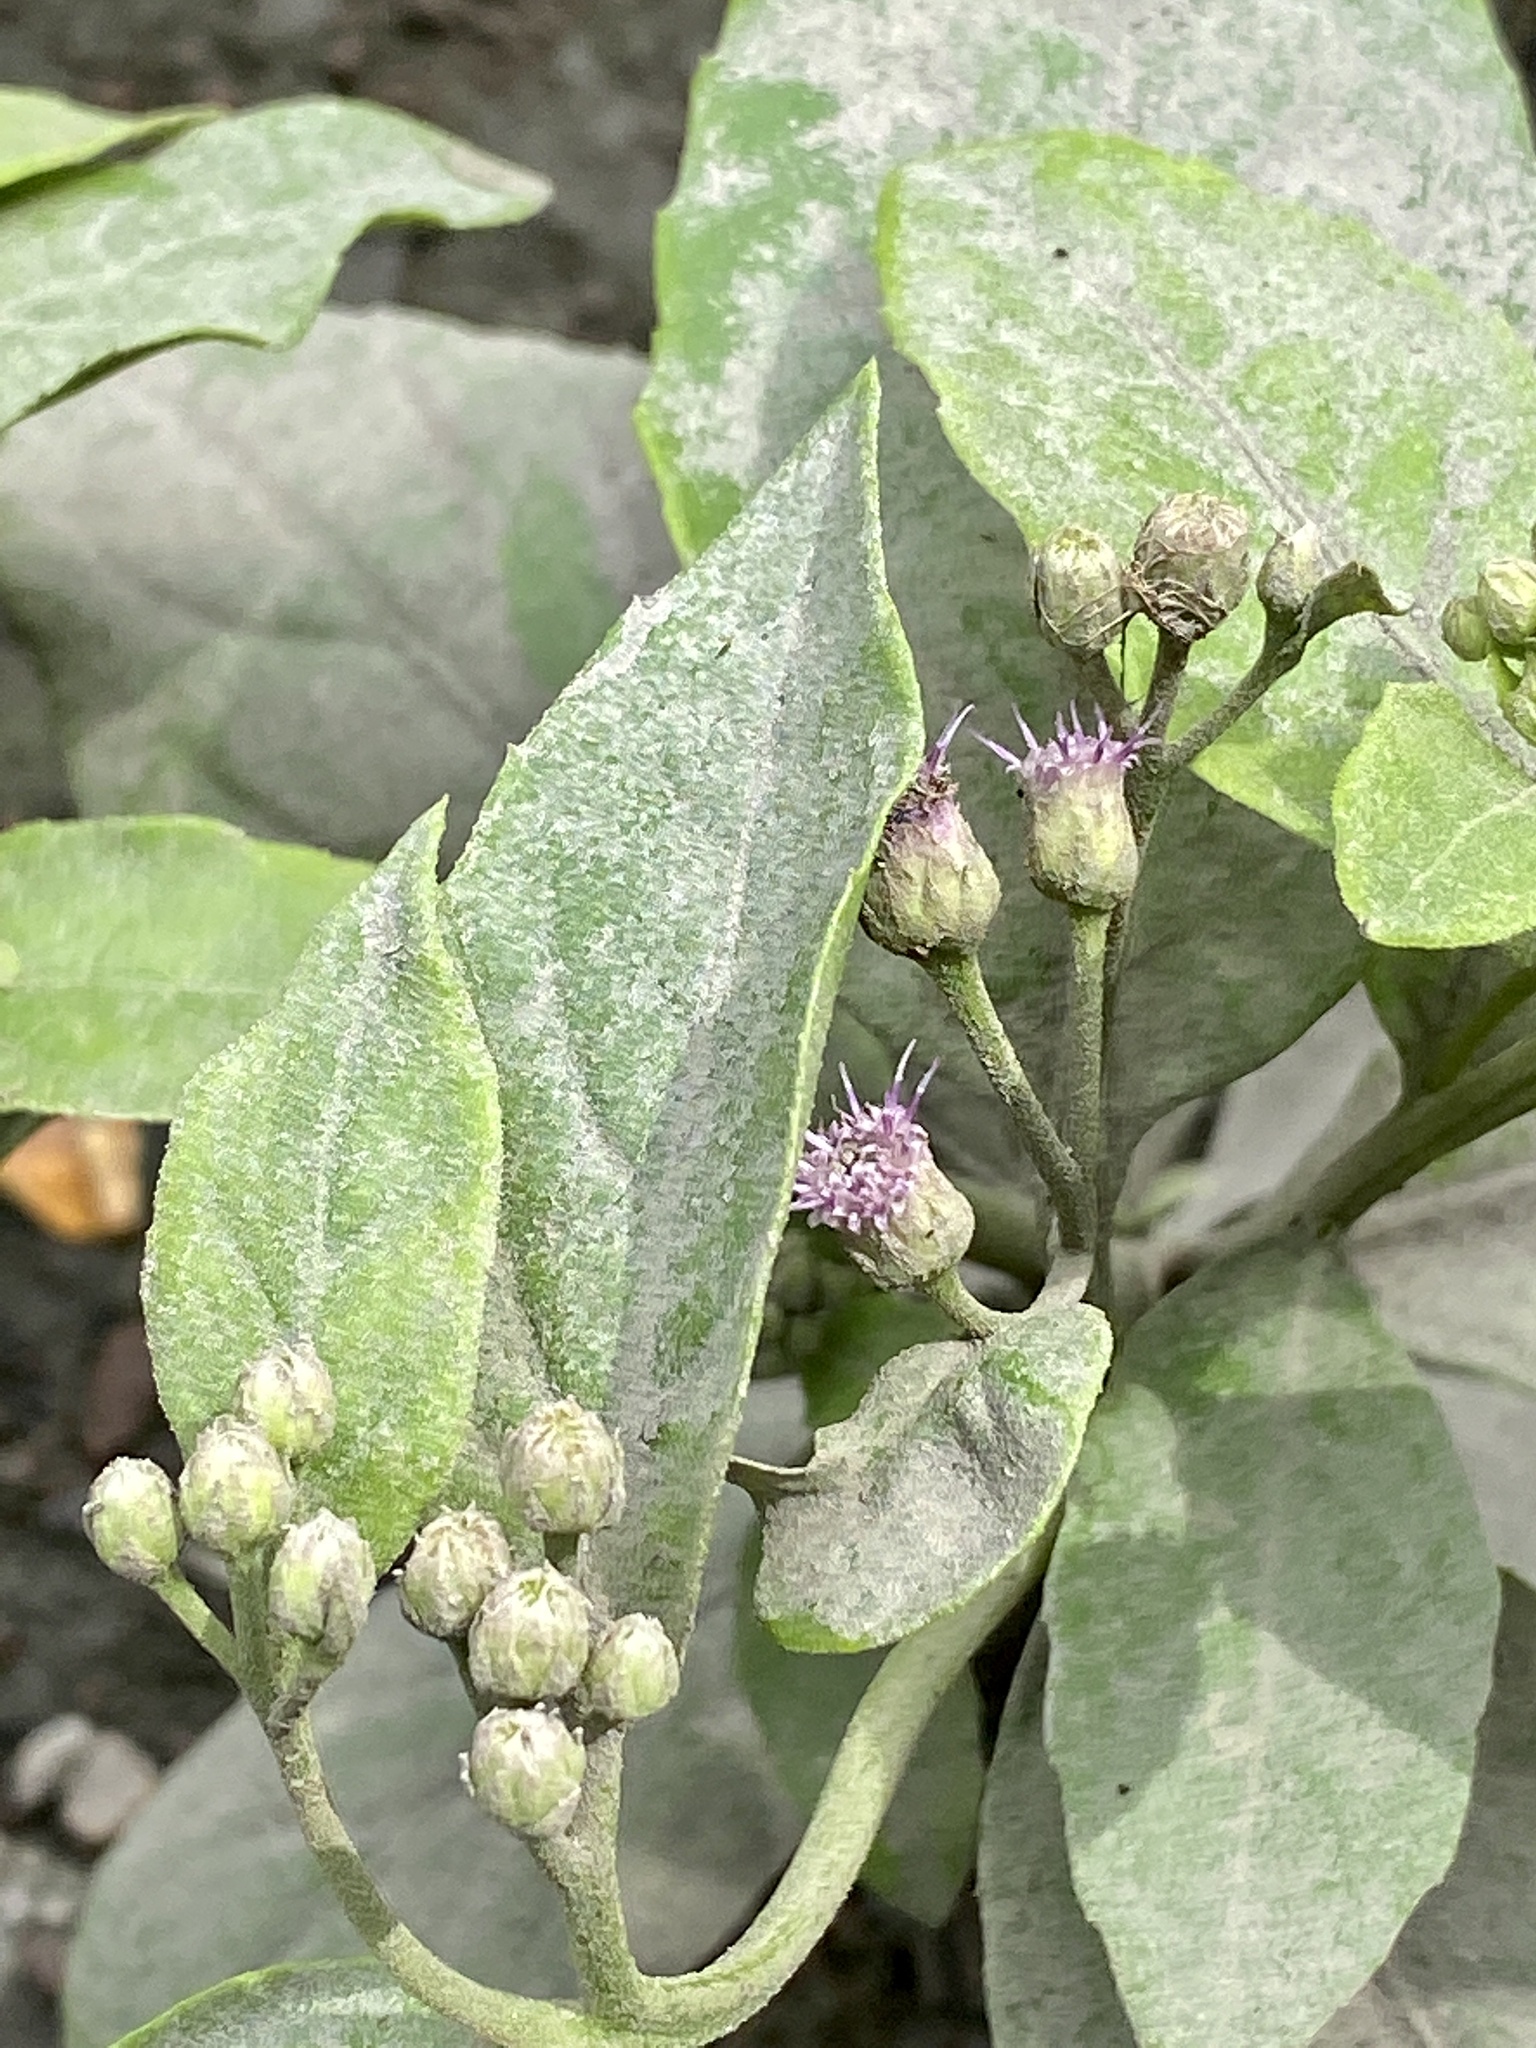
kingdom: Plantae
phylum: Tracheophyta
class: Magnoliopsida
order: Asterales
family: Asteraceae
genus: Pluchea
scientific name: Pluchea odorata
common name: Saltmarsh fleabane
